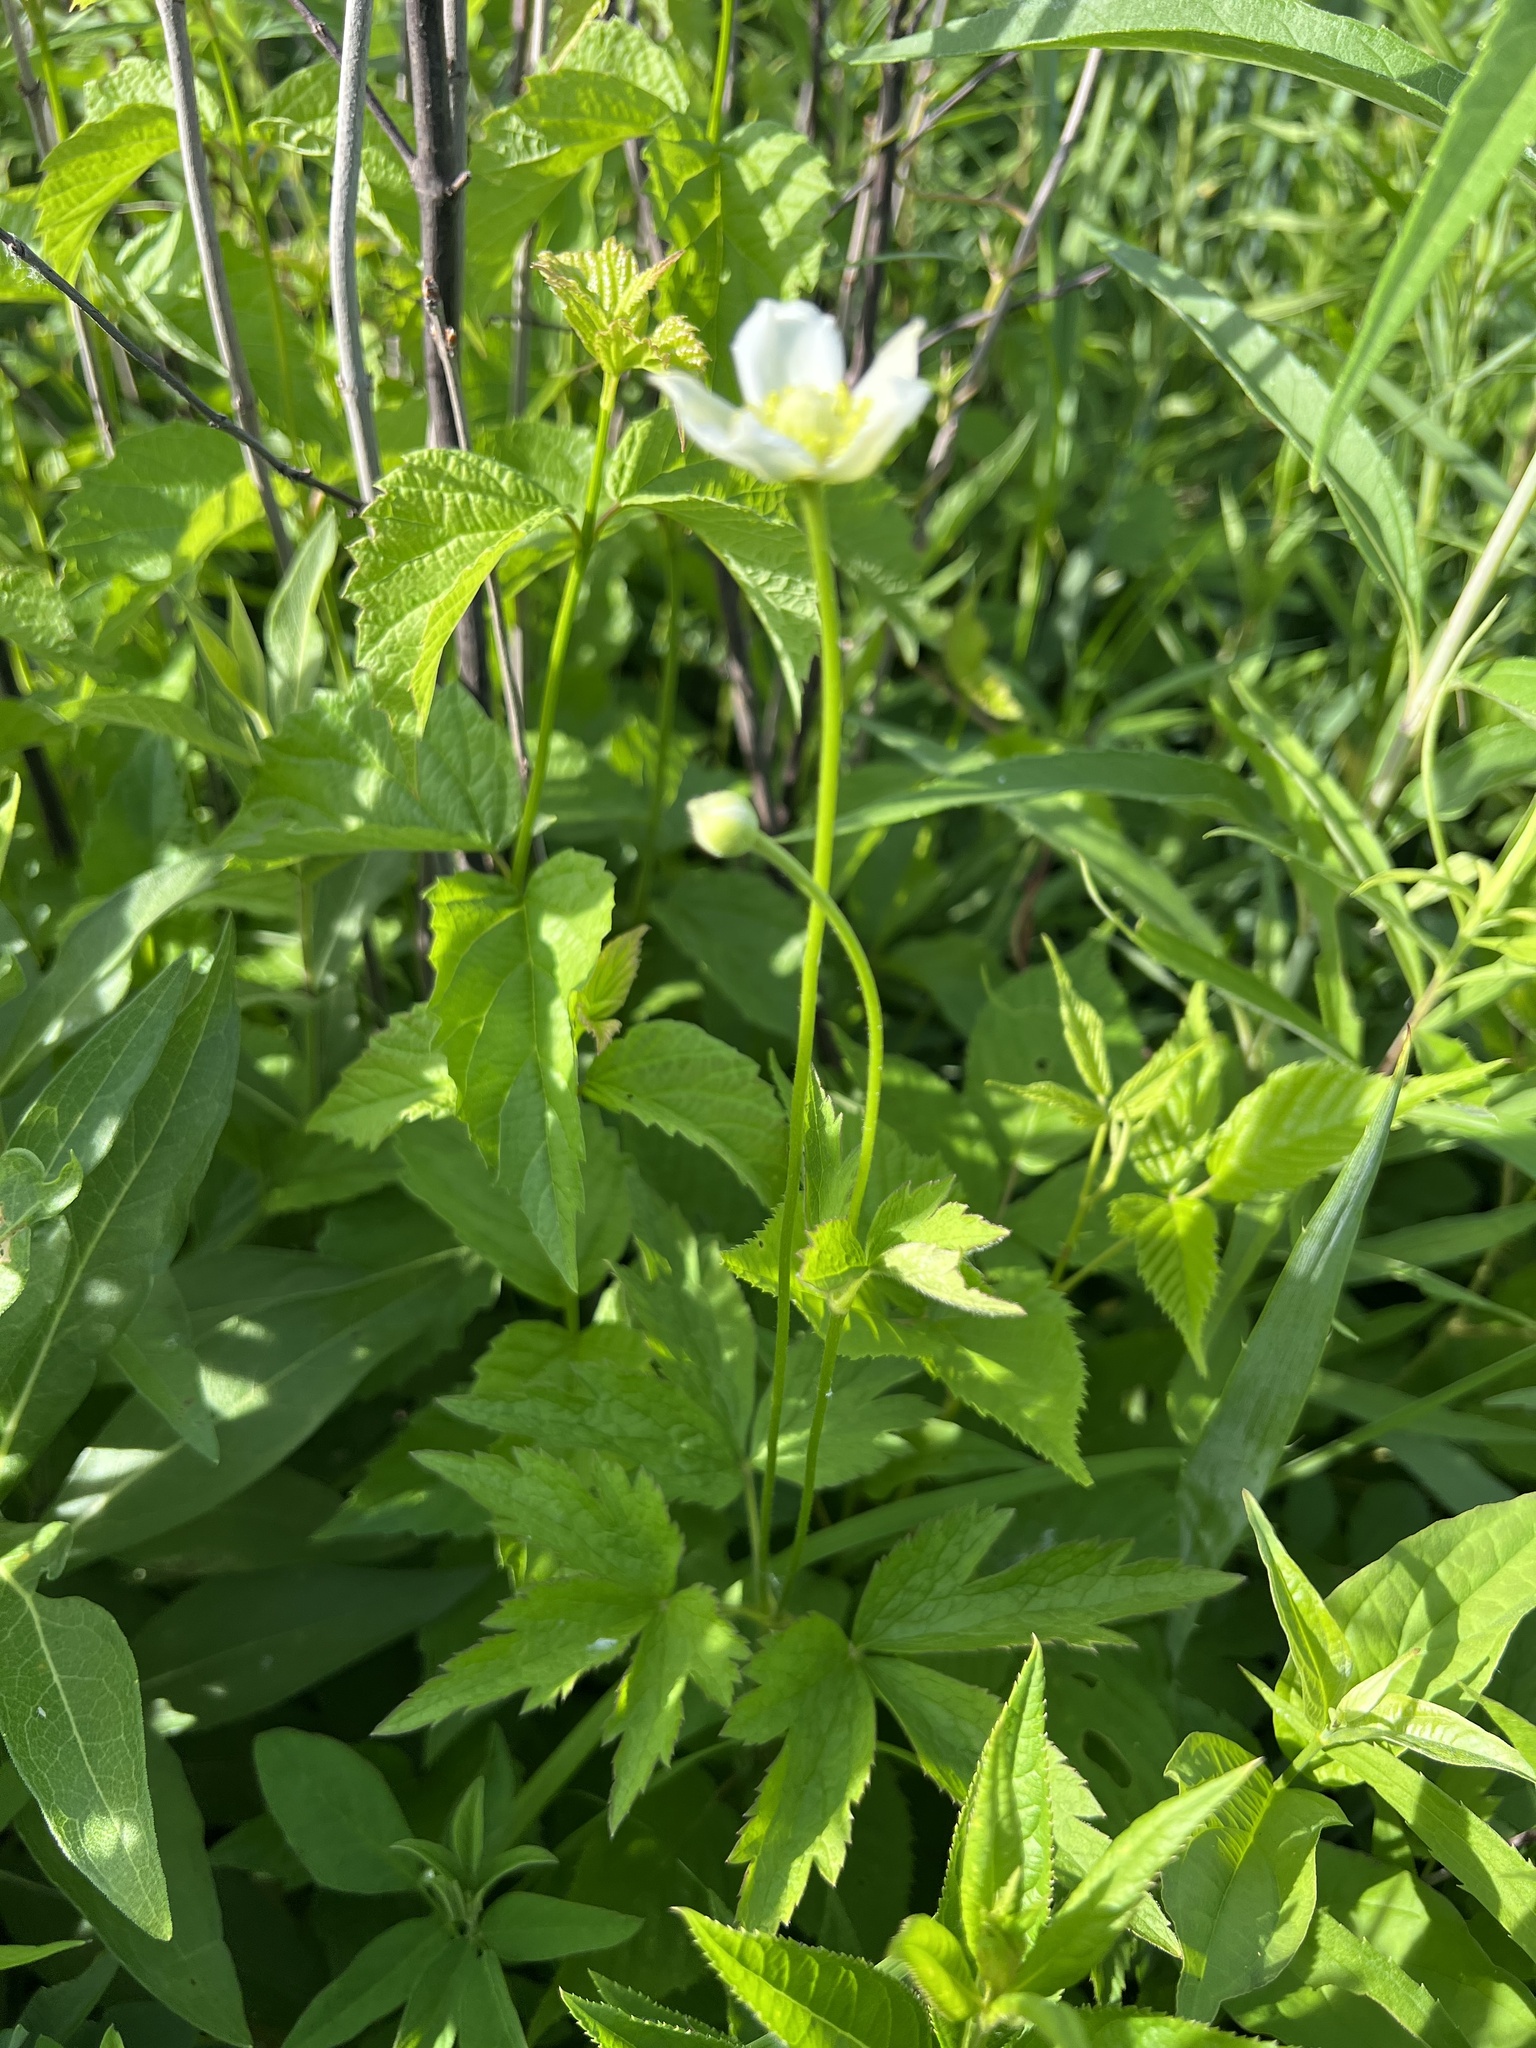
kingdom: Plantae
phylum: Tracheophyta
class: Magnoliopsida
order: Ranunculales
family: Ranunculaceae
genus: Anemone
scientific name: Anemone virginiana
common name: Tall anemone
